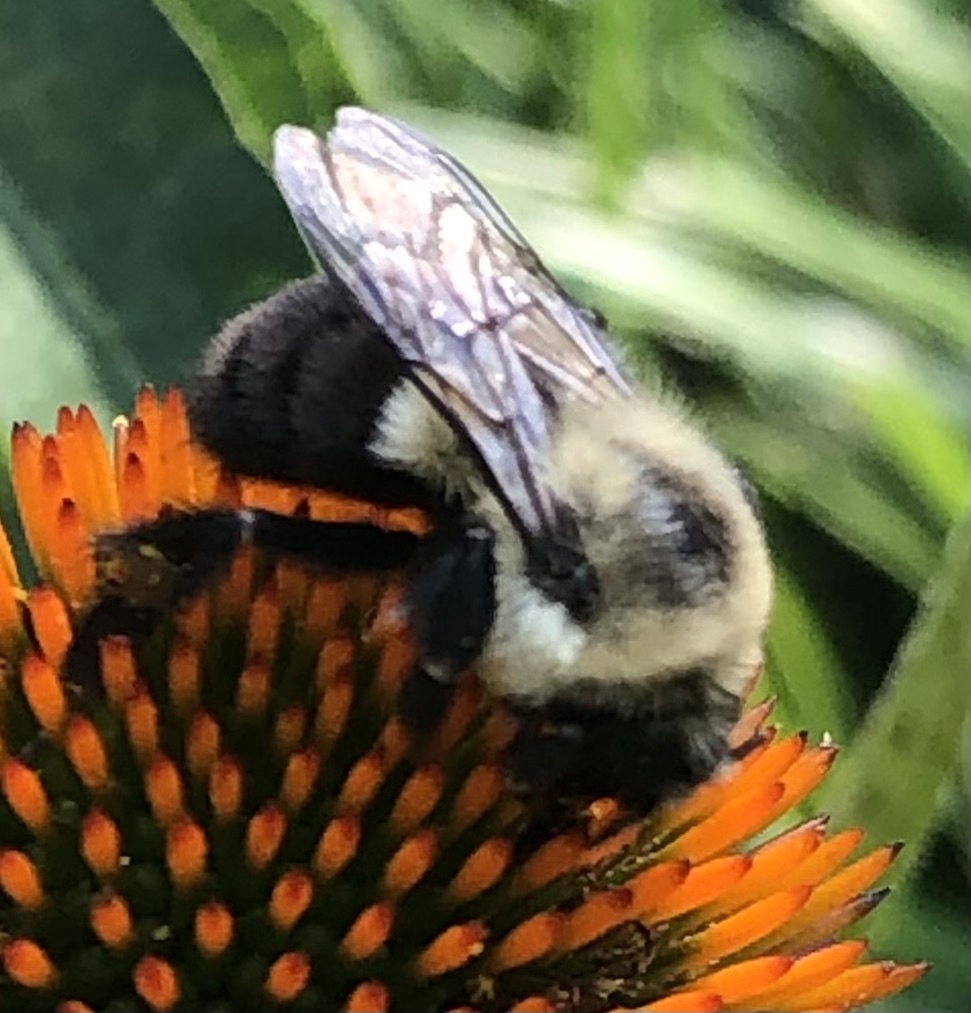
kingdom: Animalia
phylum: Arthropoda
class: Insecta
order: Hymenoptera
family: Apidae
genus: Bombus
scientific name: Bombus impatiens
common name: Common eastern bumble bee
